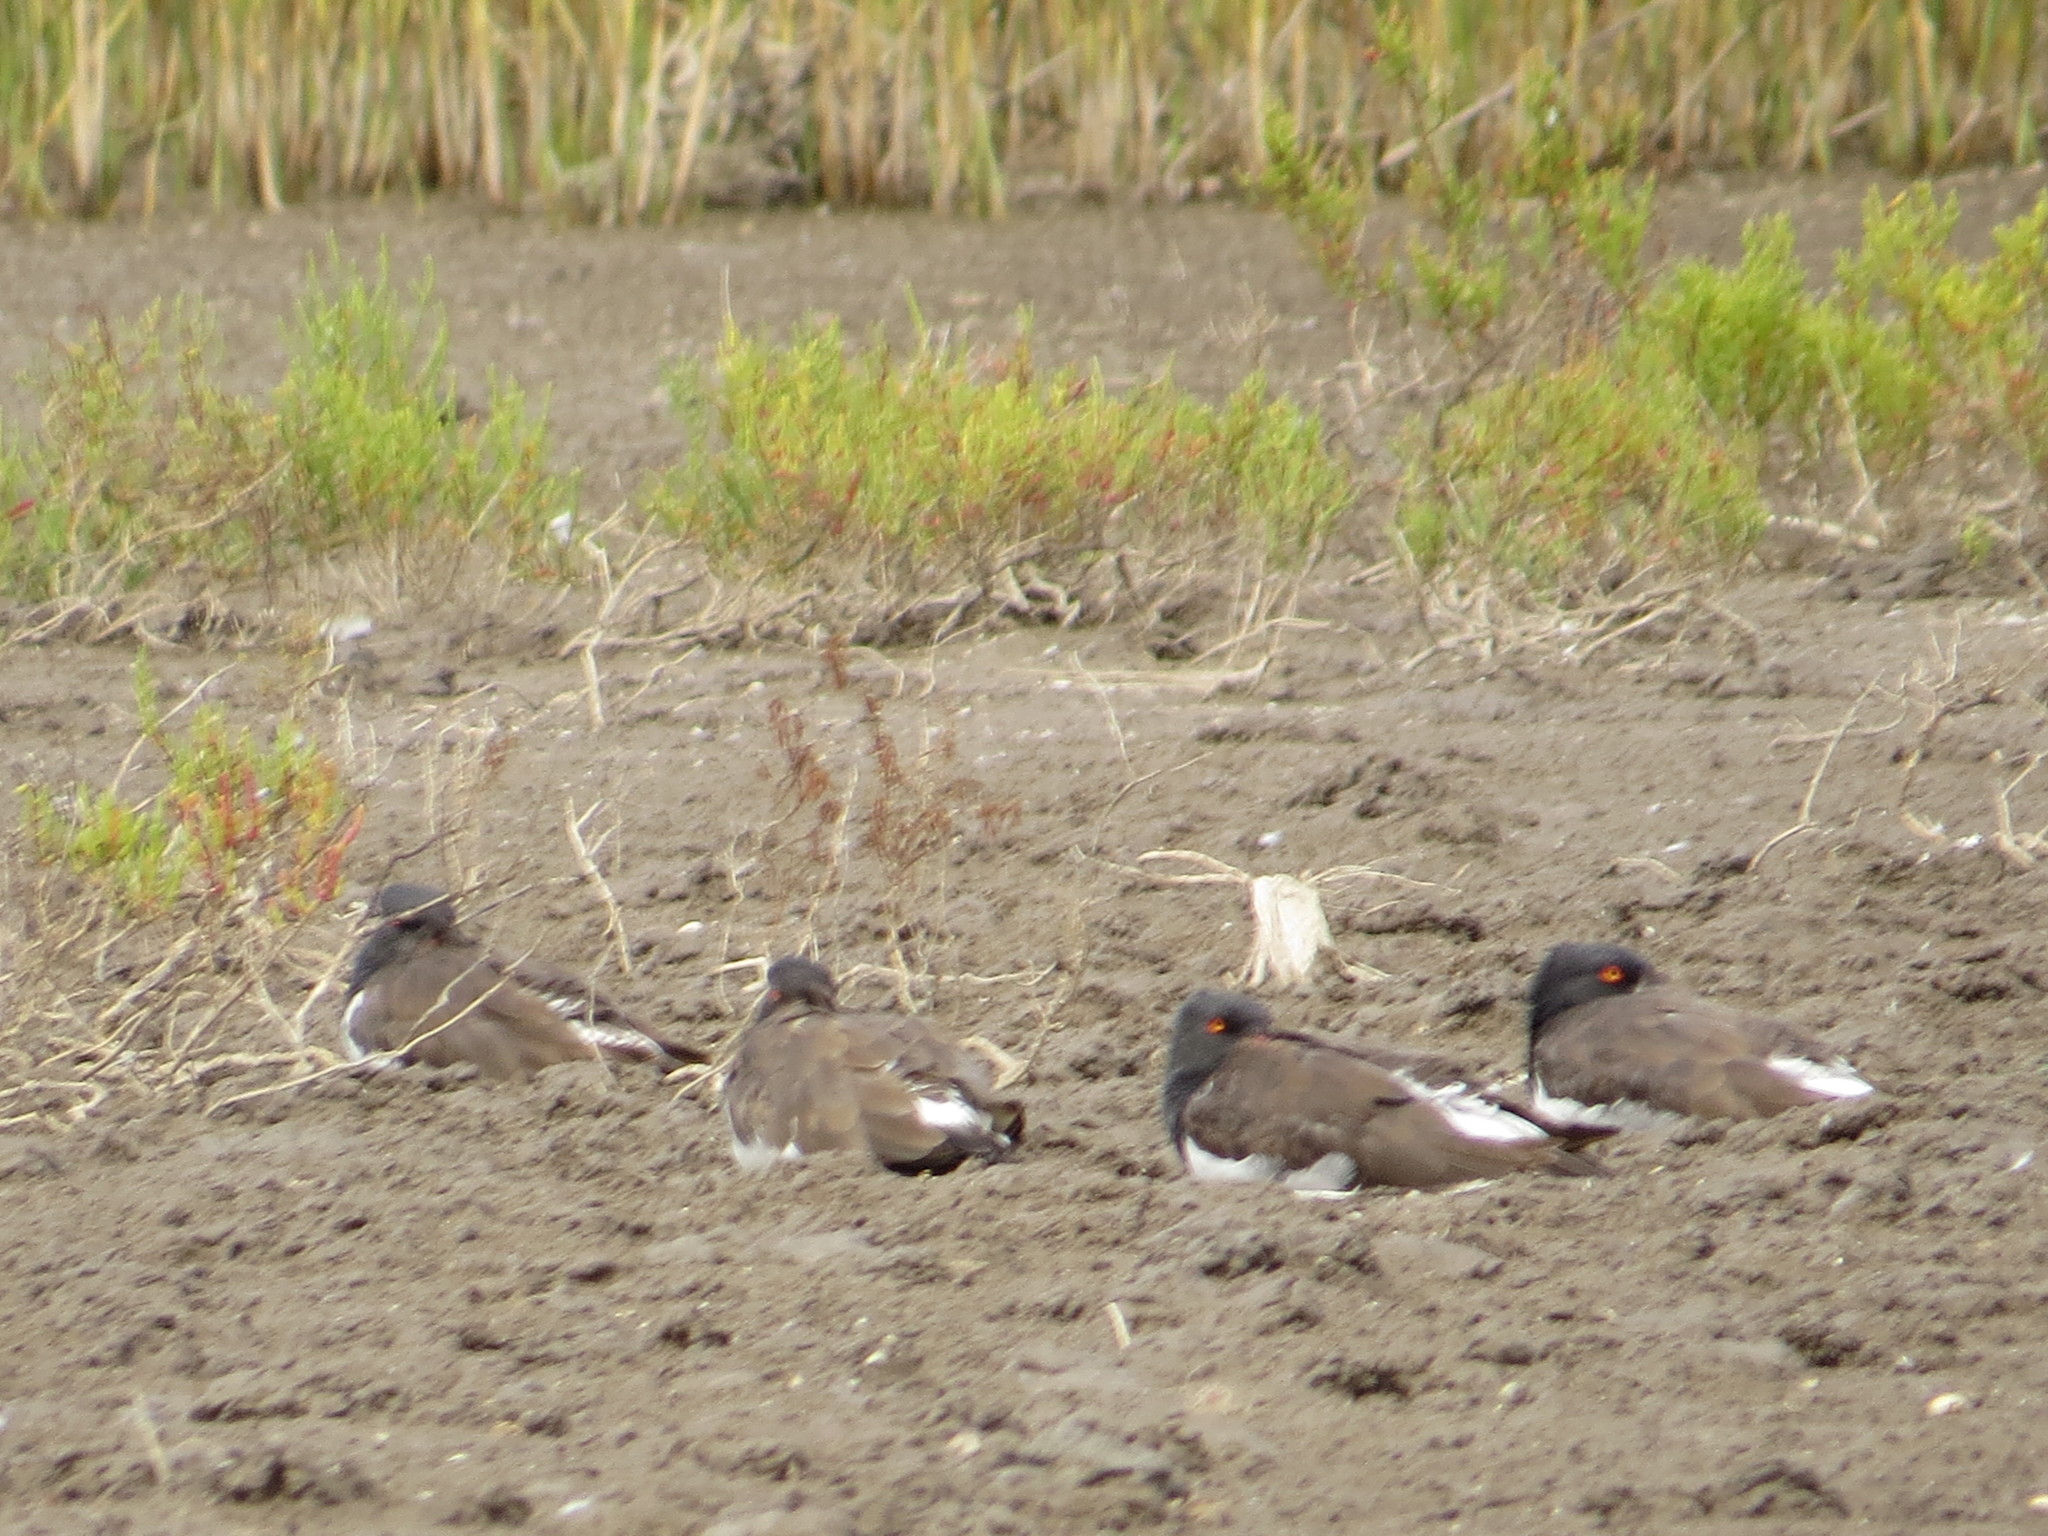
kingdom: Animalia
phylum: Chordata
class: Aves
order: Charadriiformes
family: Haematopodidae
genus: Haematopus
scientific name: Haematopus palliatus
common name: American oystercatcher
